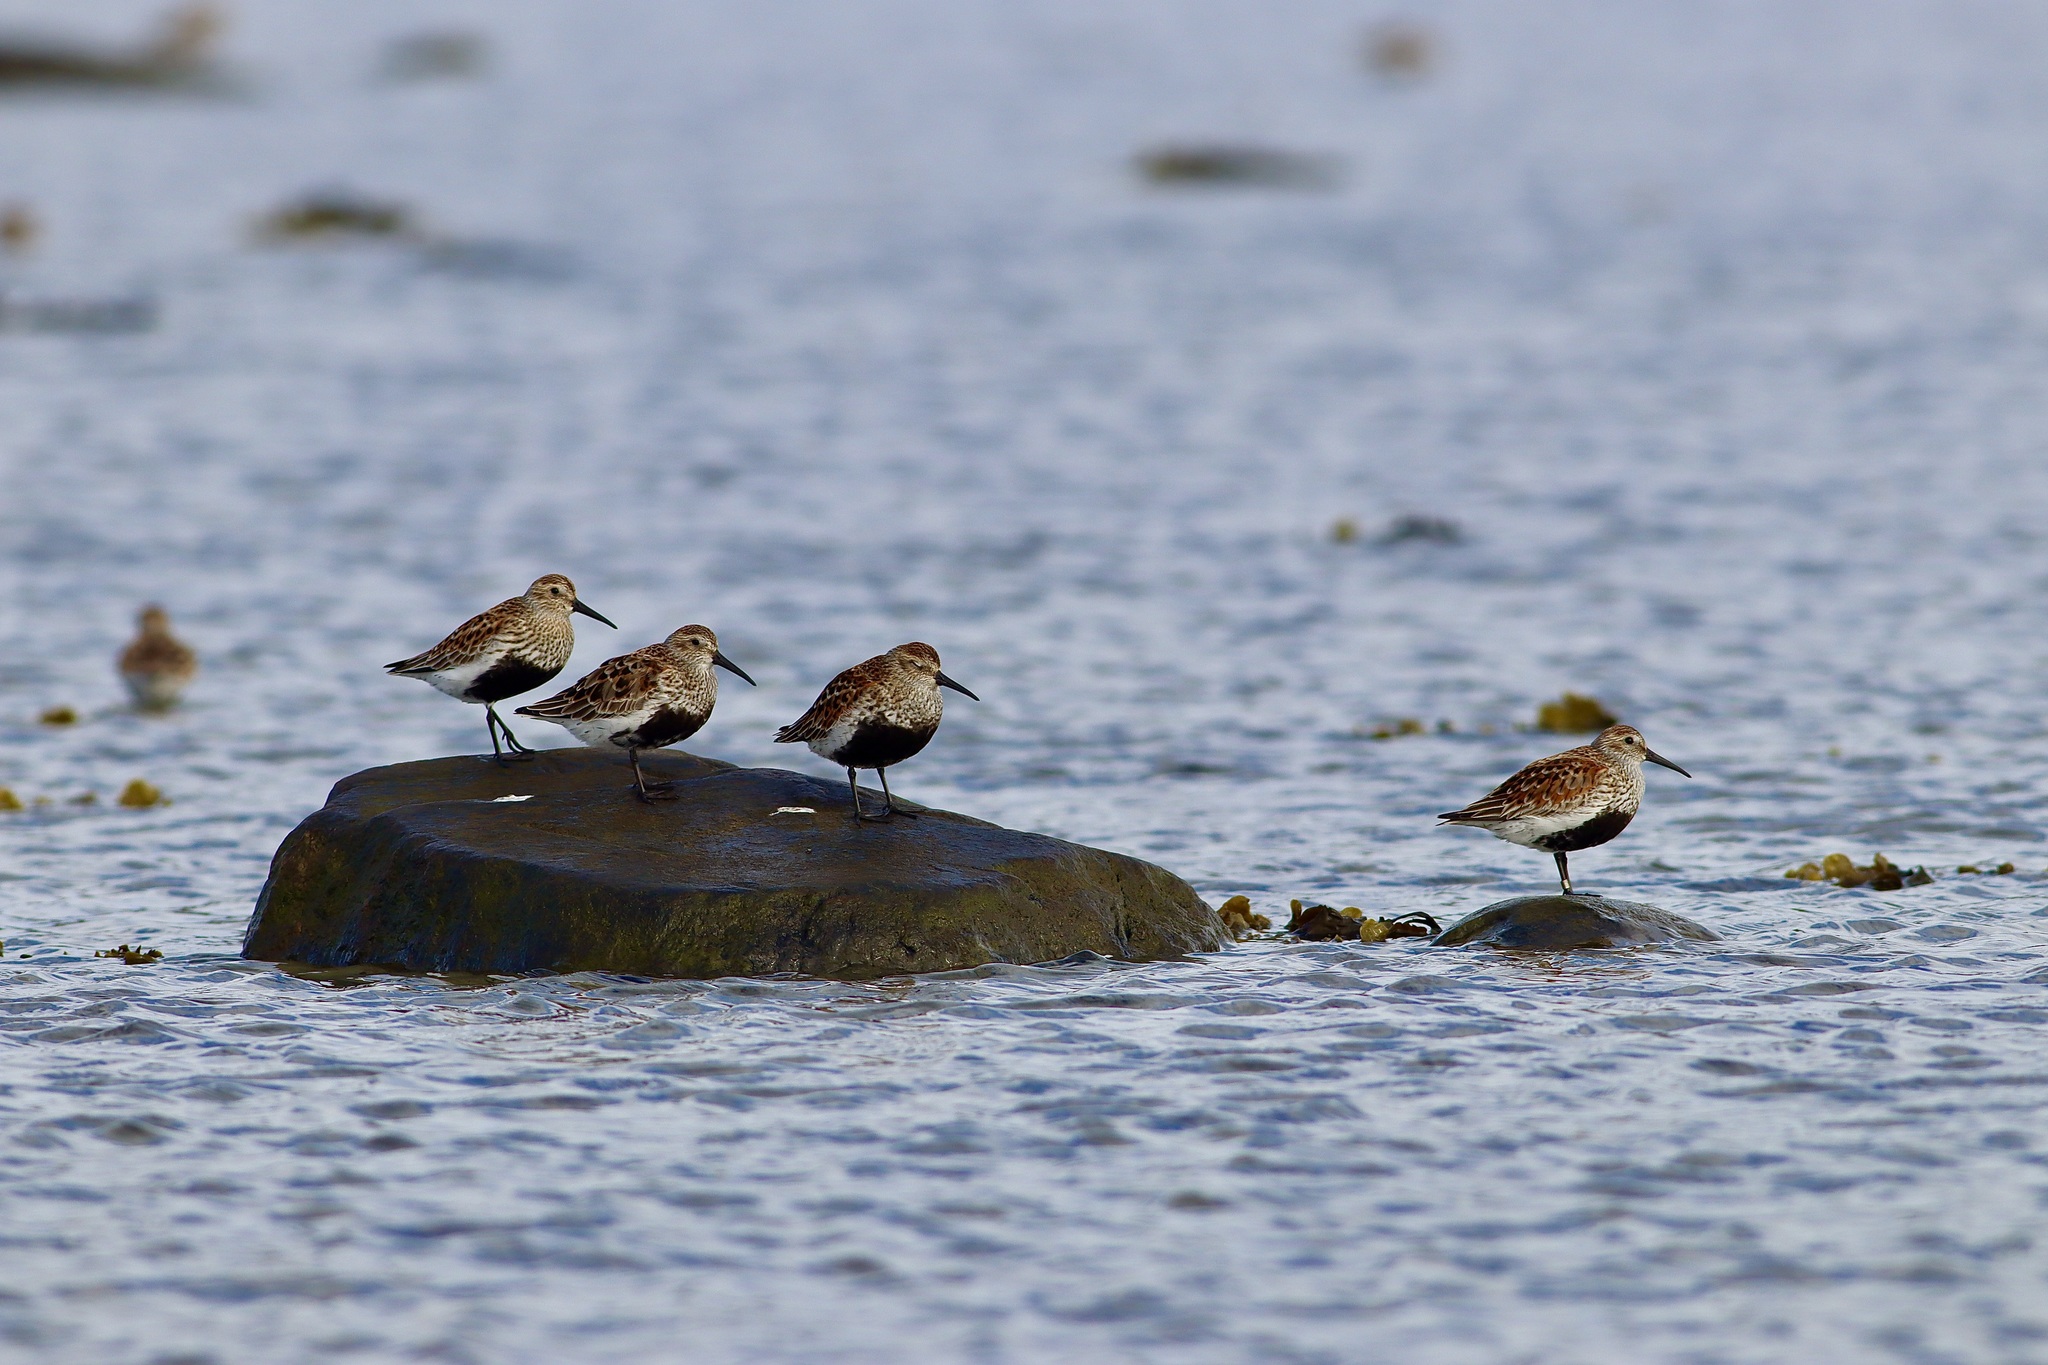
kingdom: Animalia
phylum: Chordata
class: Aves
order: Charadriiformes
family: Scolopacidae
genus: Calidris
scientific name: Calidris alpina
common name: Dunlin
